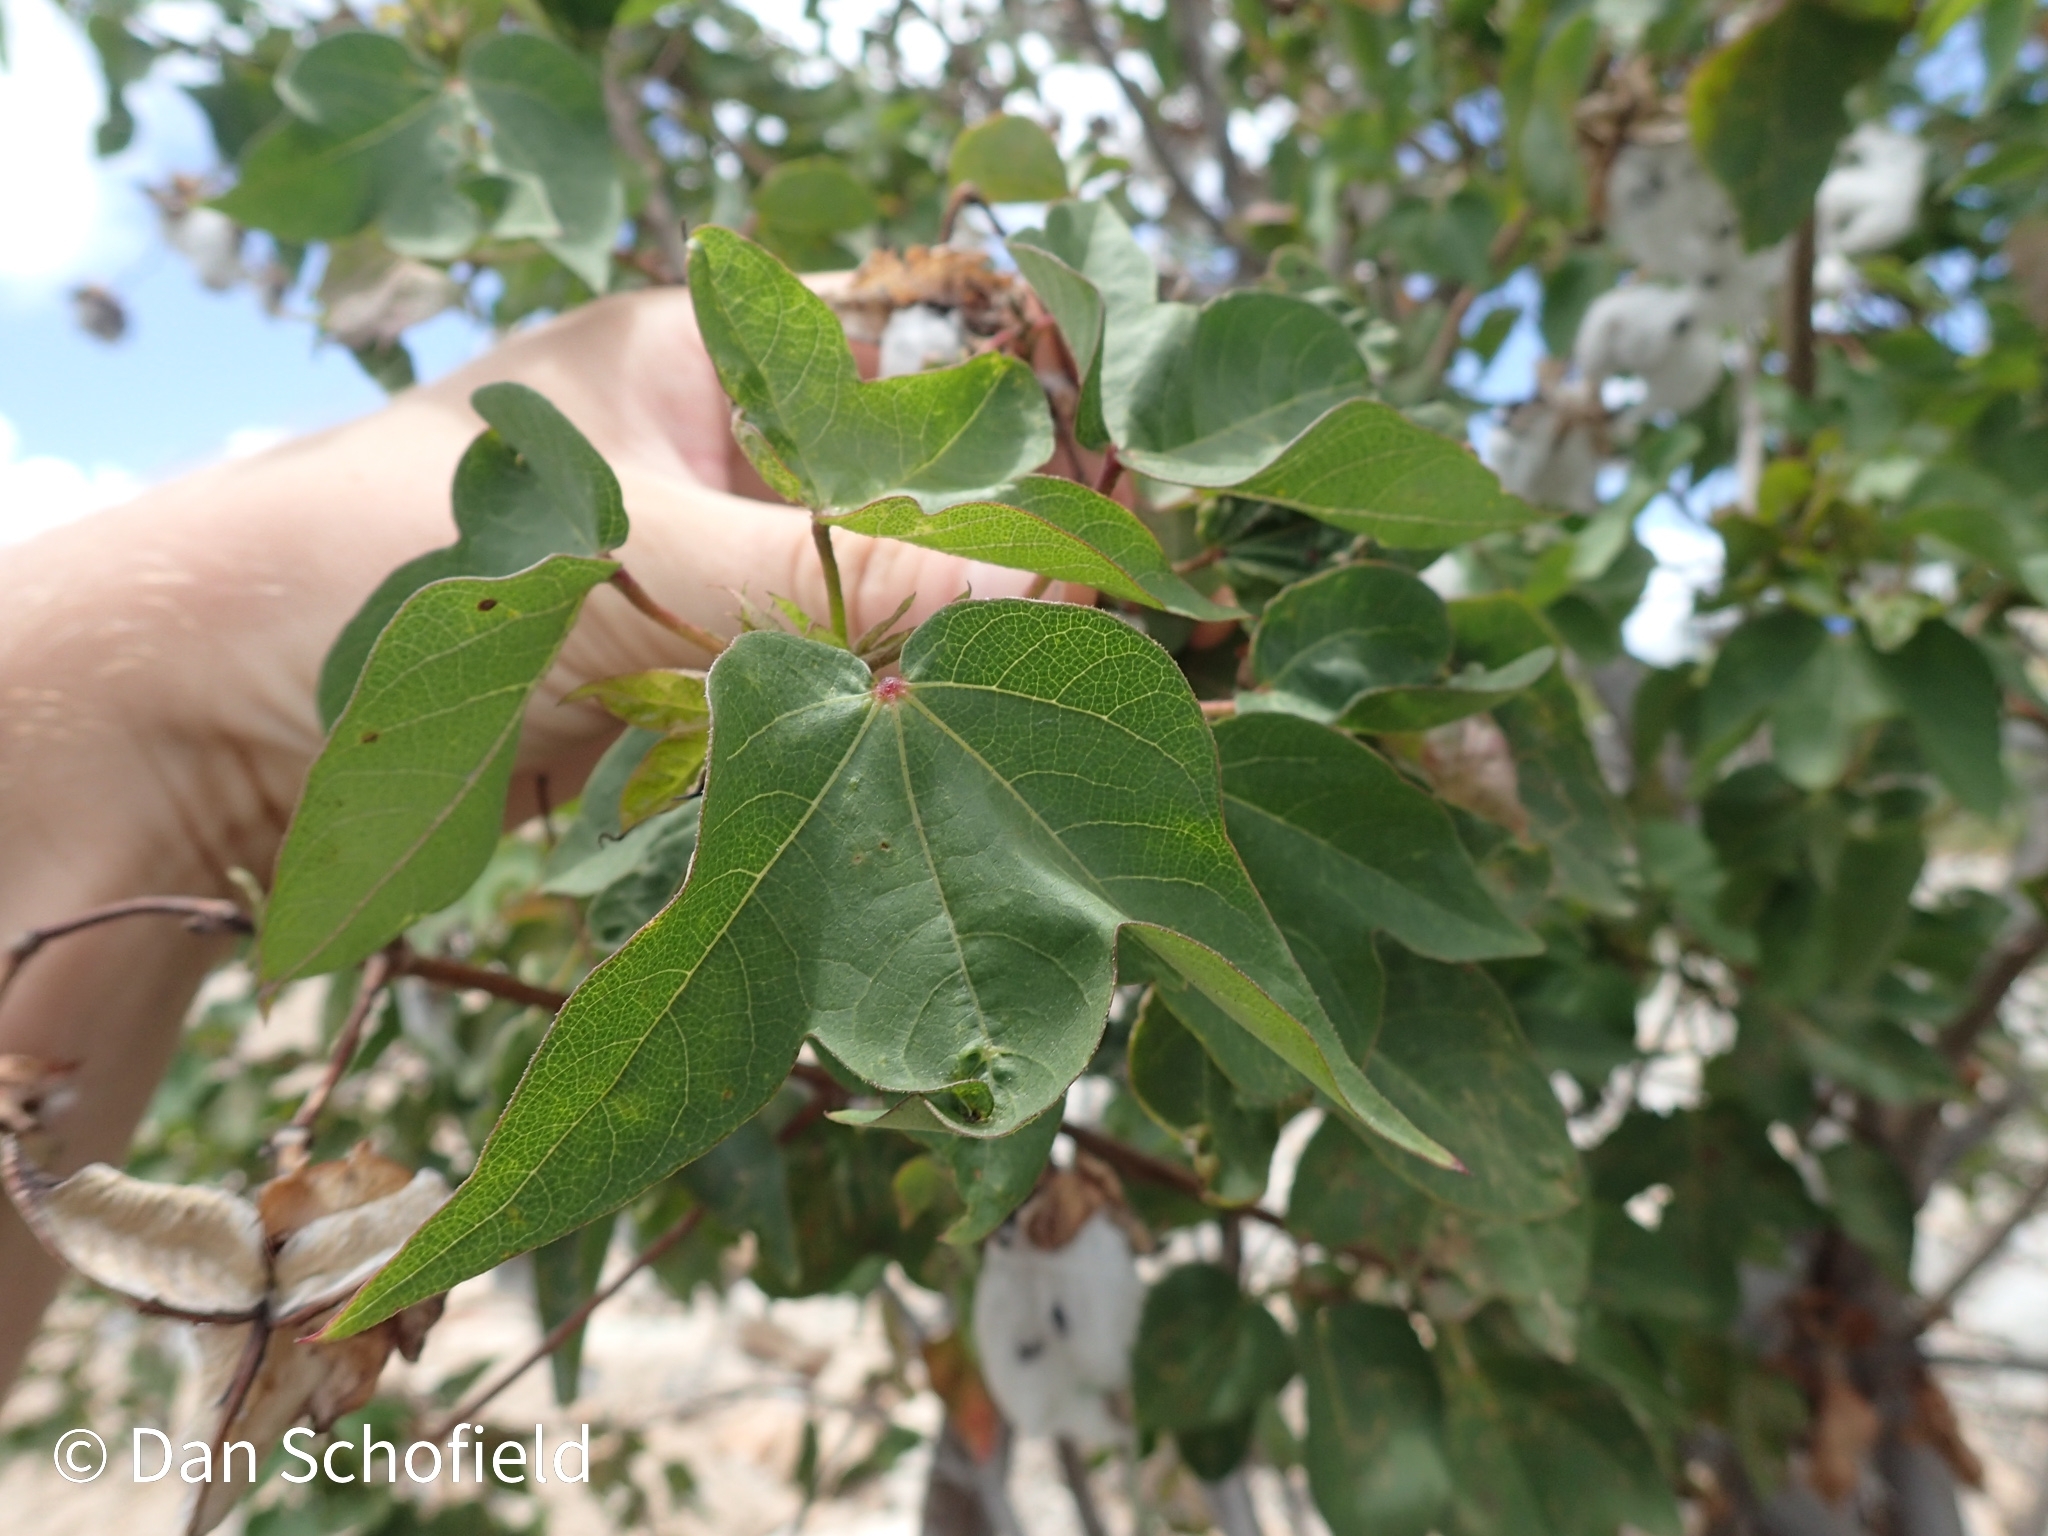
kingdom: Plantae
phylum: Tracheophyta
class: Magnoliopsida
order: Malvales
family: Malvaceae
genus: Gossypium
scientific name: Gossypium hirsutum
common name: Cotton
